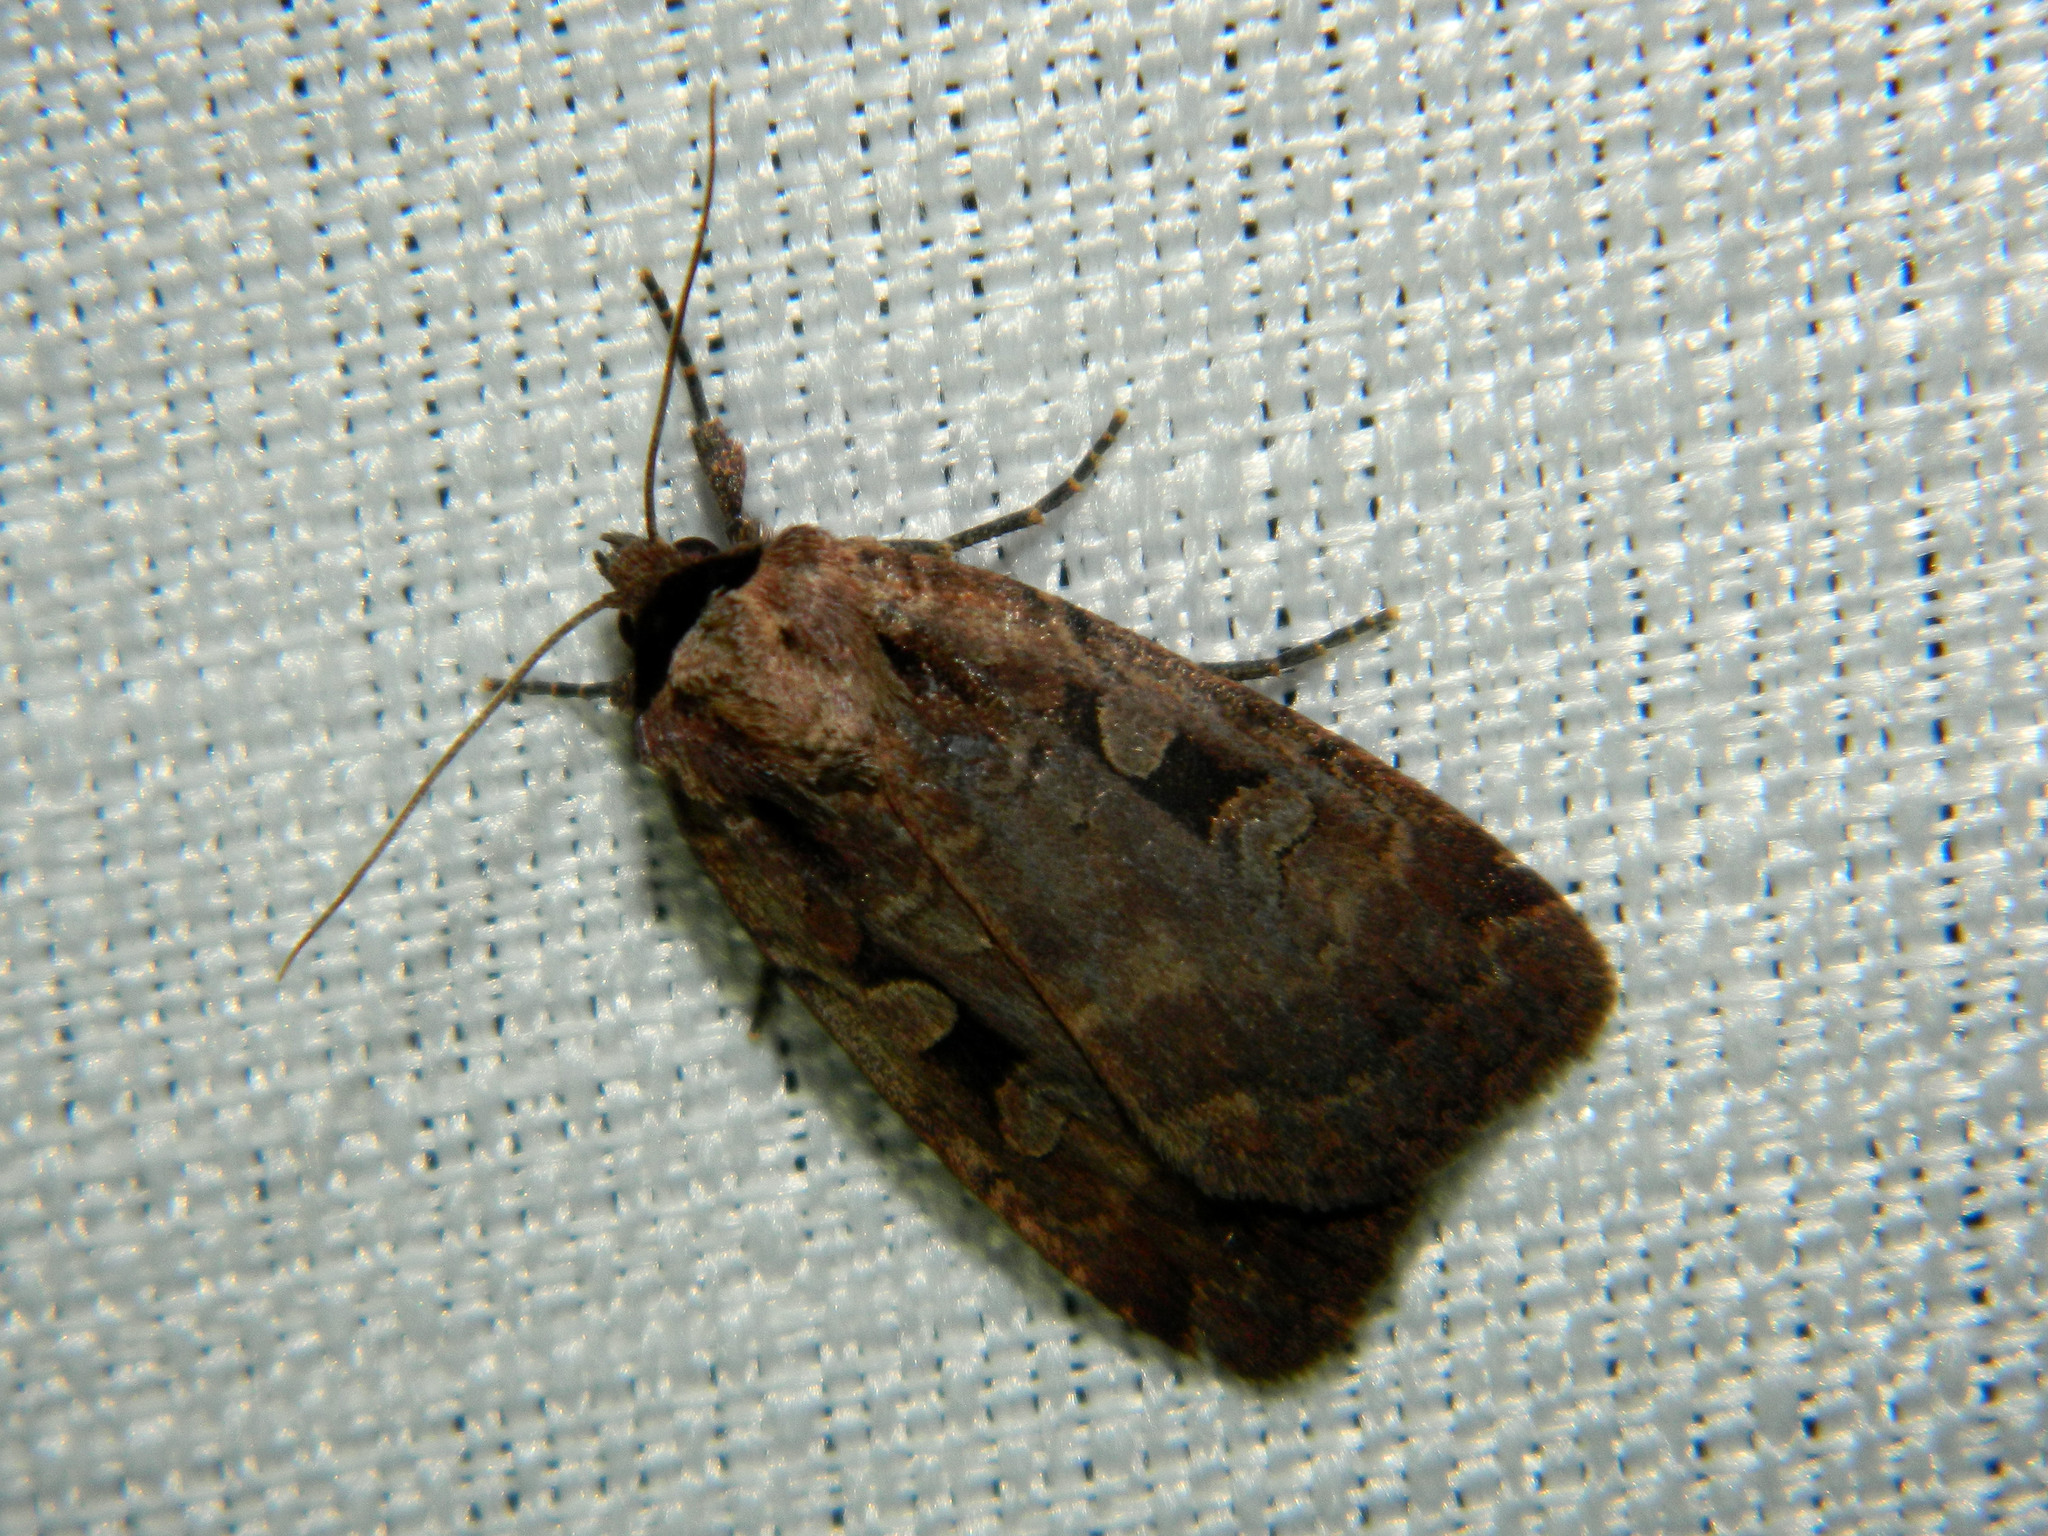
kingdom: Animalia
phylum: Arthropoda
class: Insecta
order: Lepidoptera
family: Noctuidae
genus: Eueretagrotis
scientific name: Eueretagrotis perattentus
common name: Two-spot dart moth
